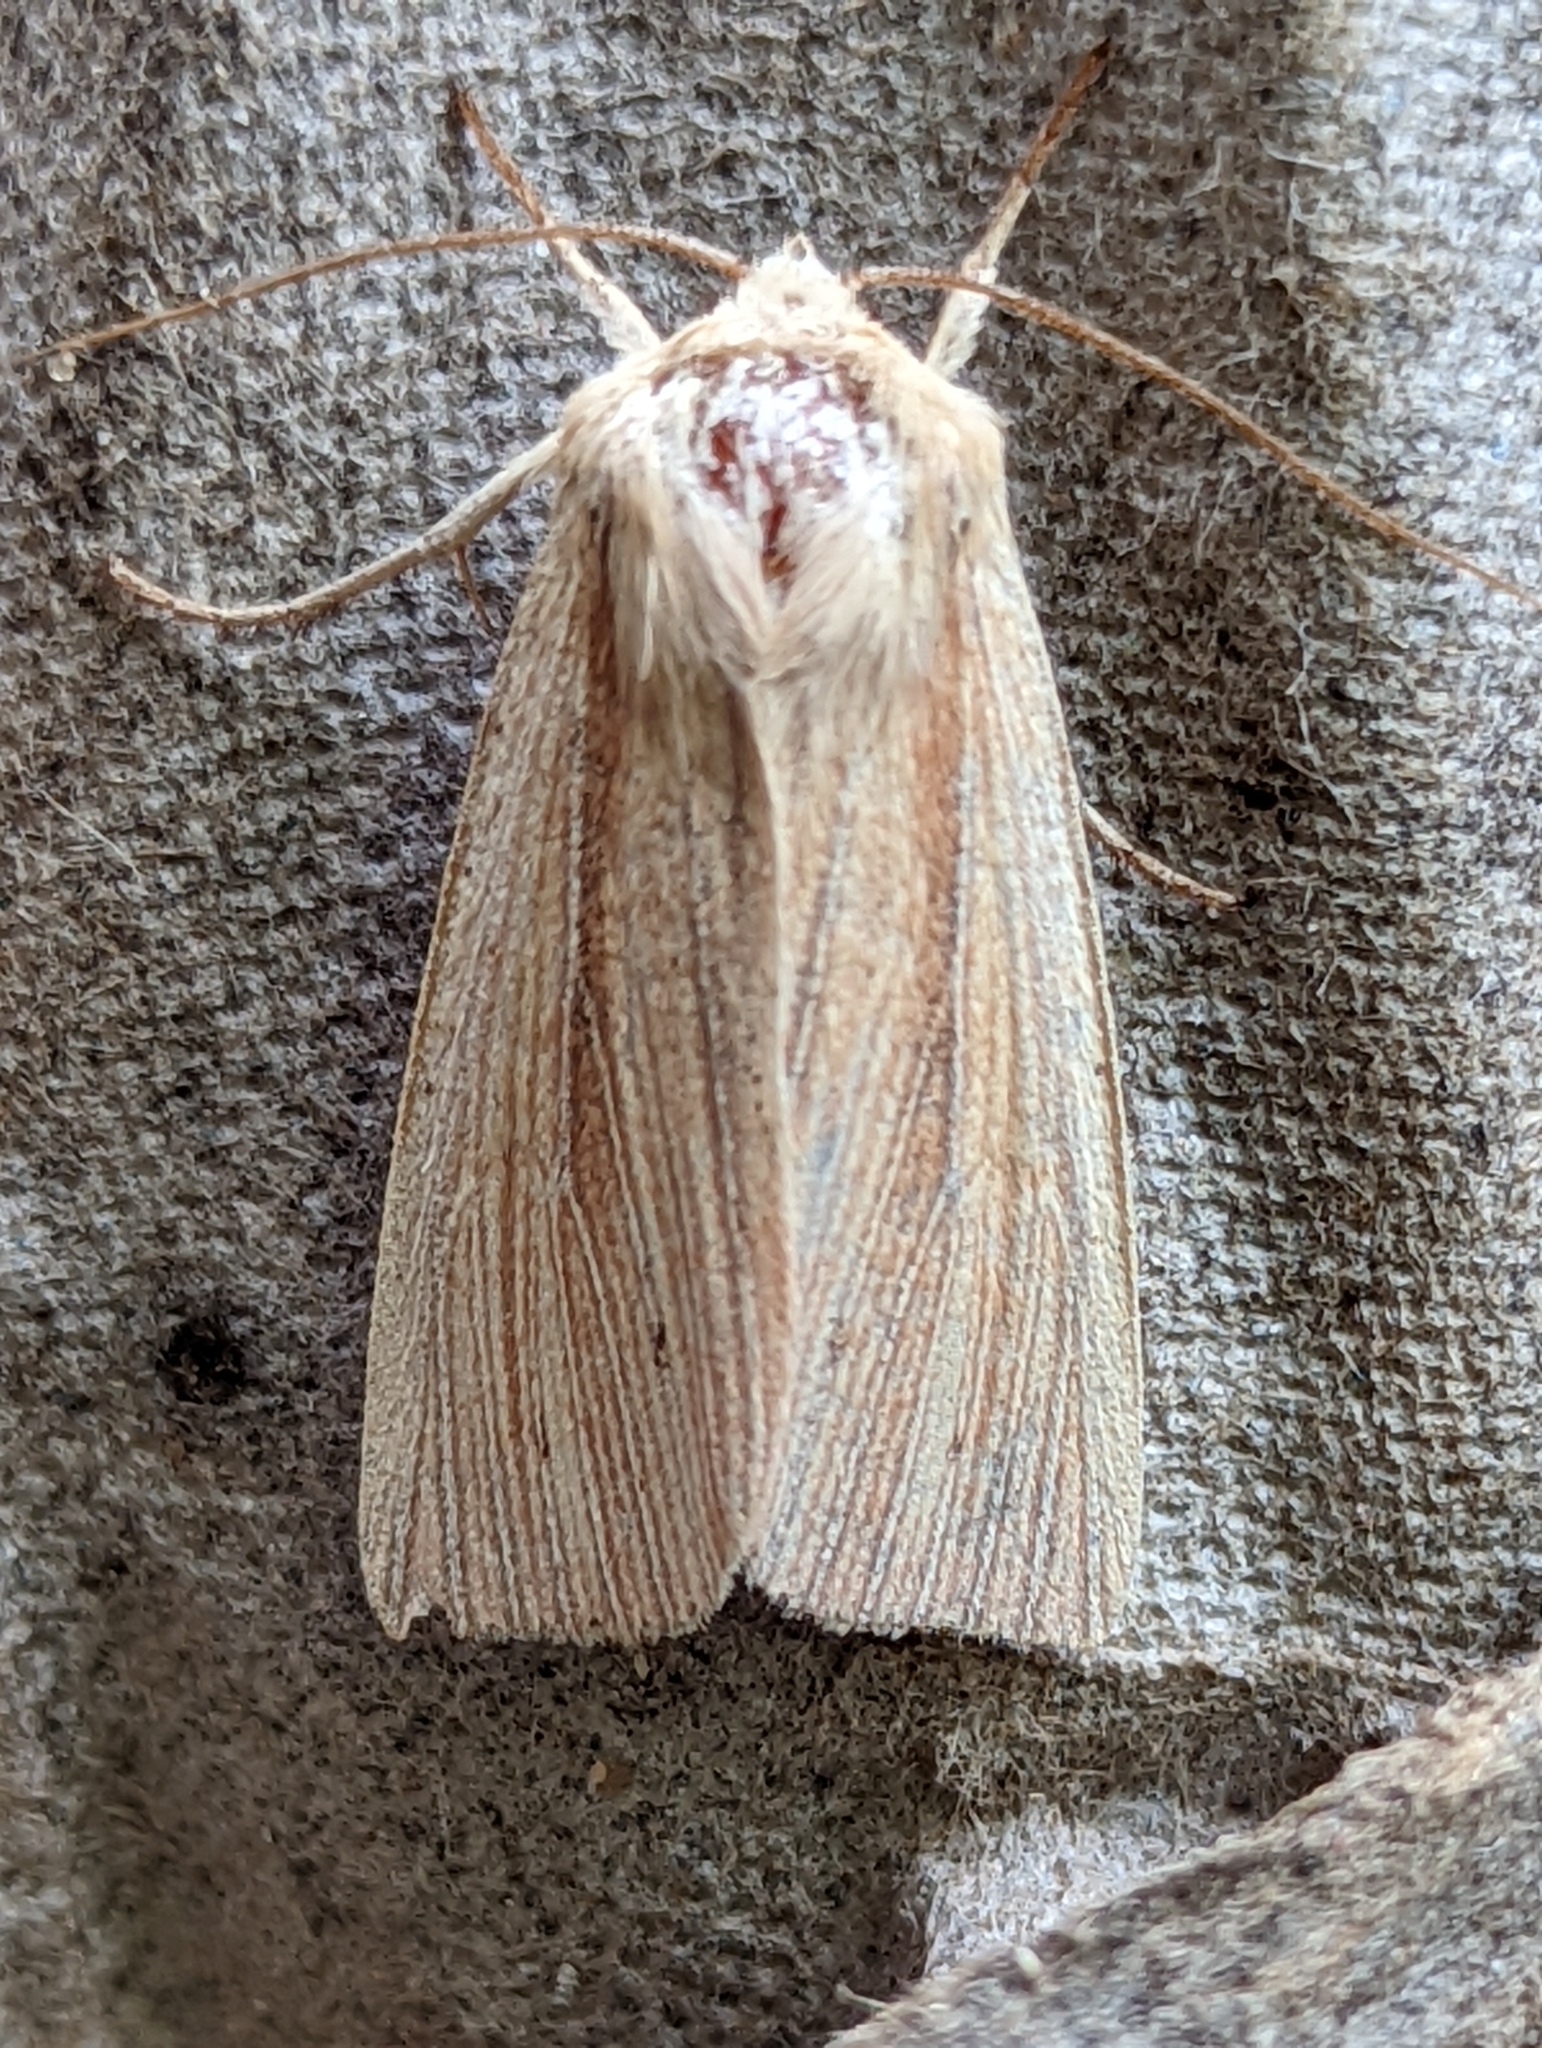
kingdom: Animalia
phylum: Arthropoda
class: Insecta
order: Lepidoptera
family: Noctuidae
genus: Mythimna
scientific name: Mythimna impura
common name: Smoky wainscot
